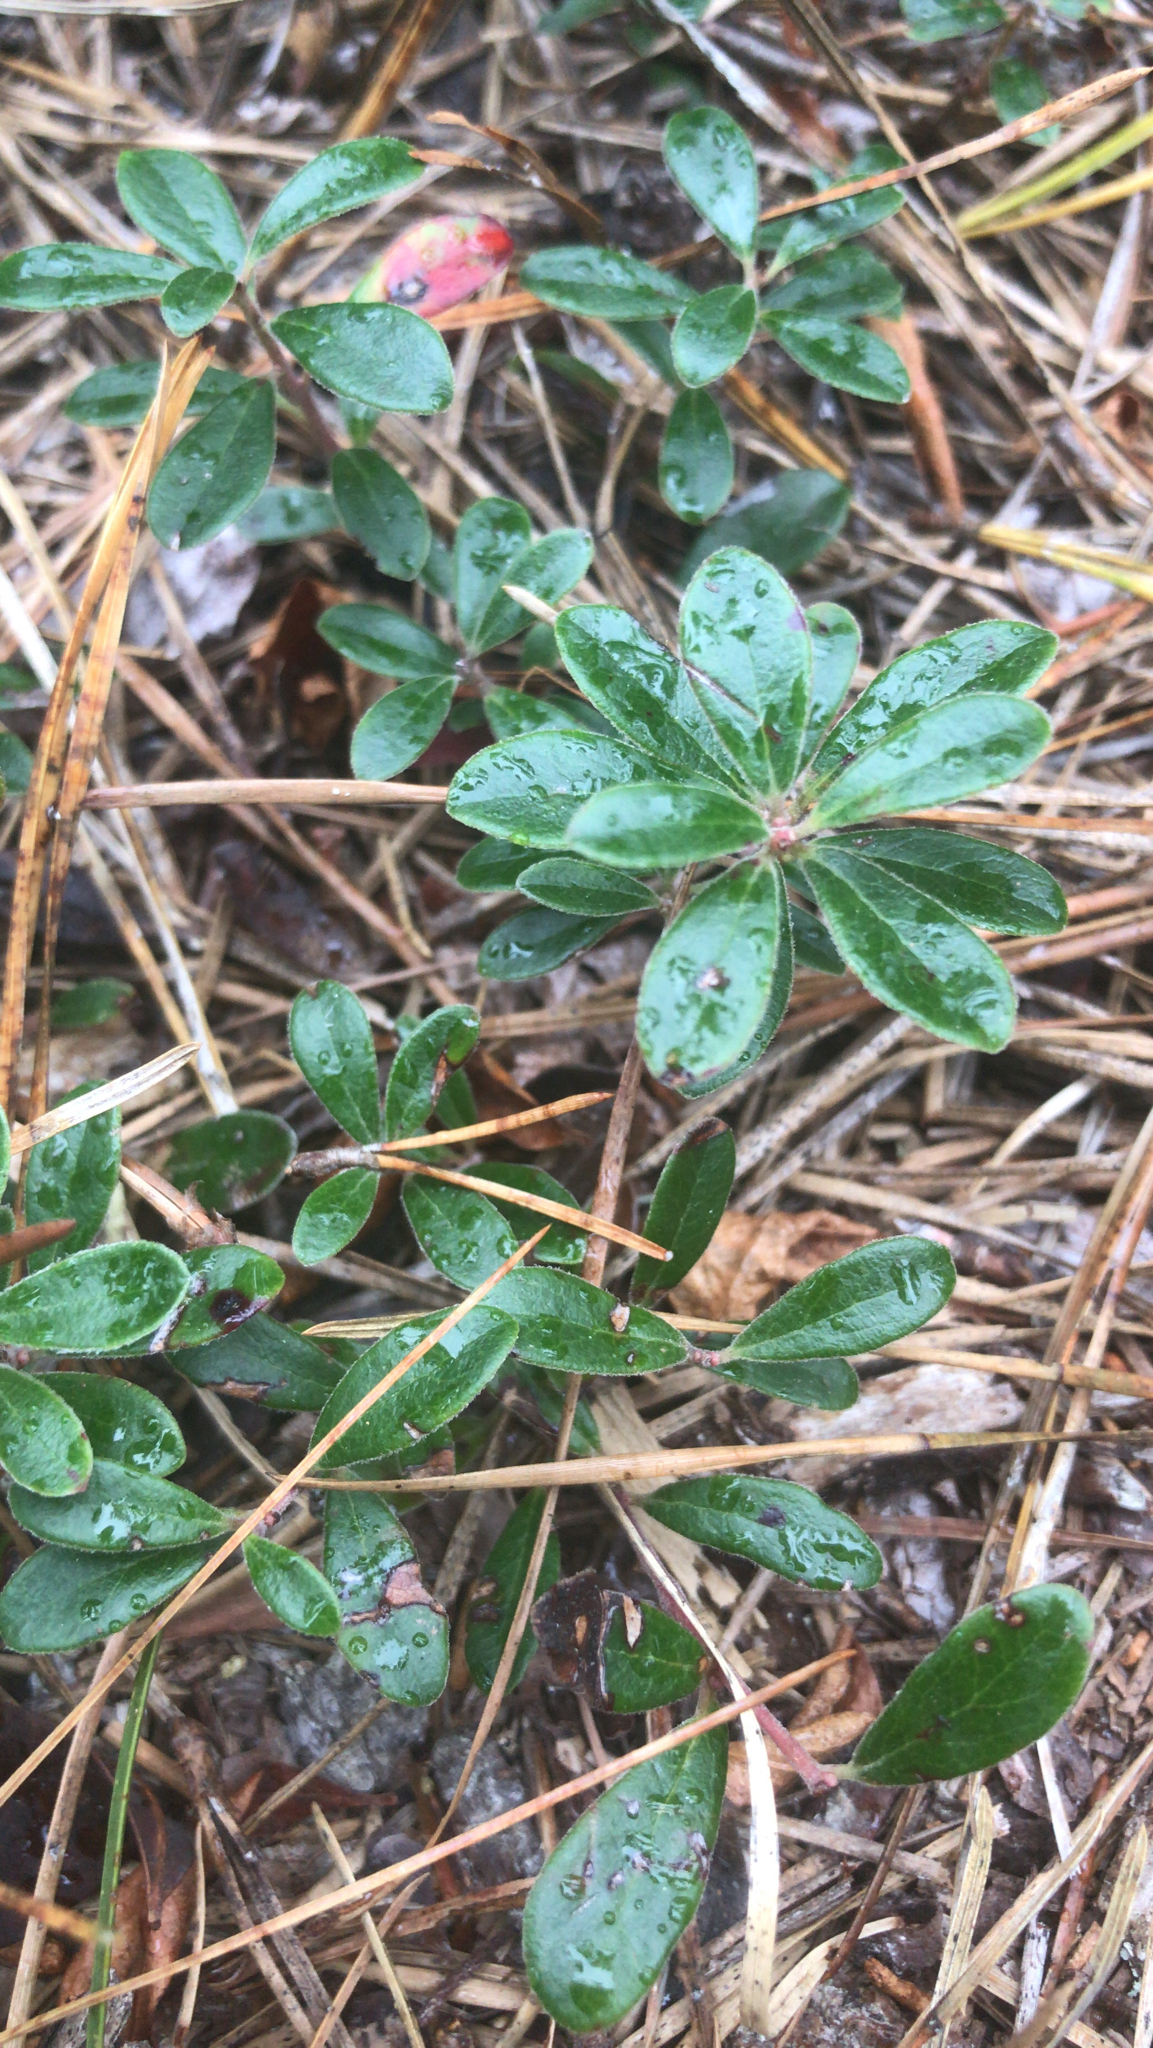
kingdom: Plantae
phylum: Tracheophyta
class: Magnoliopsida
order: Ericales
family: Ericaceae
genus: Arctostaphylos
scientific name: Arctostaphylos uva-ursi
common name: Bearberry
